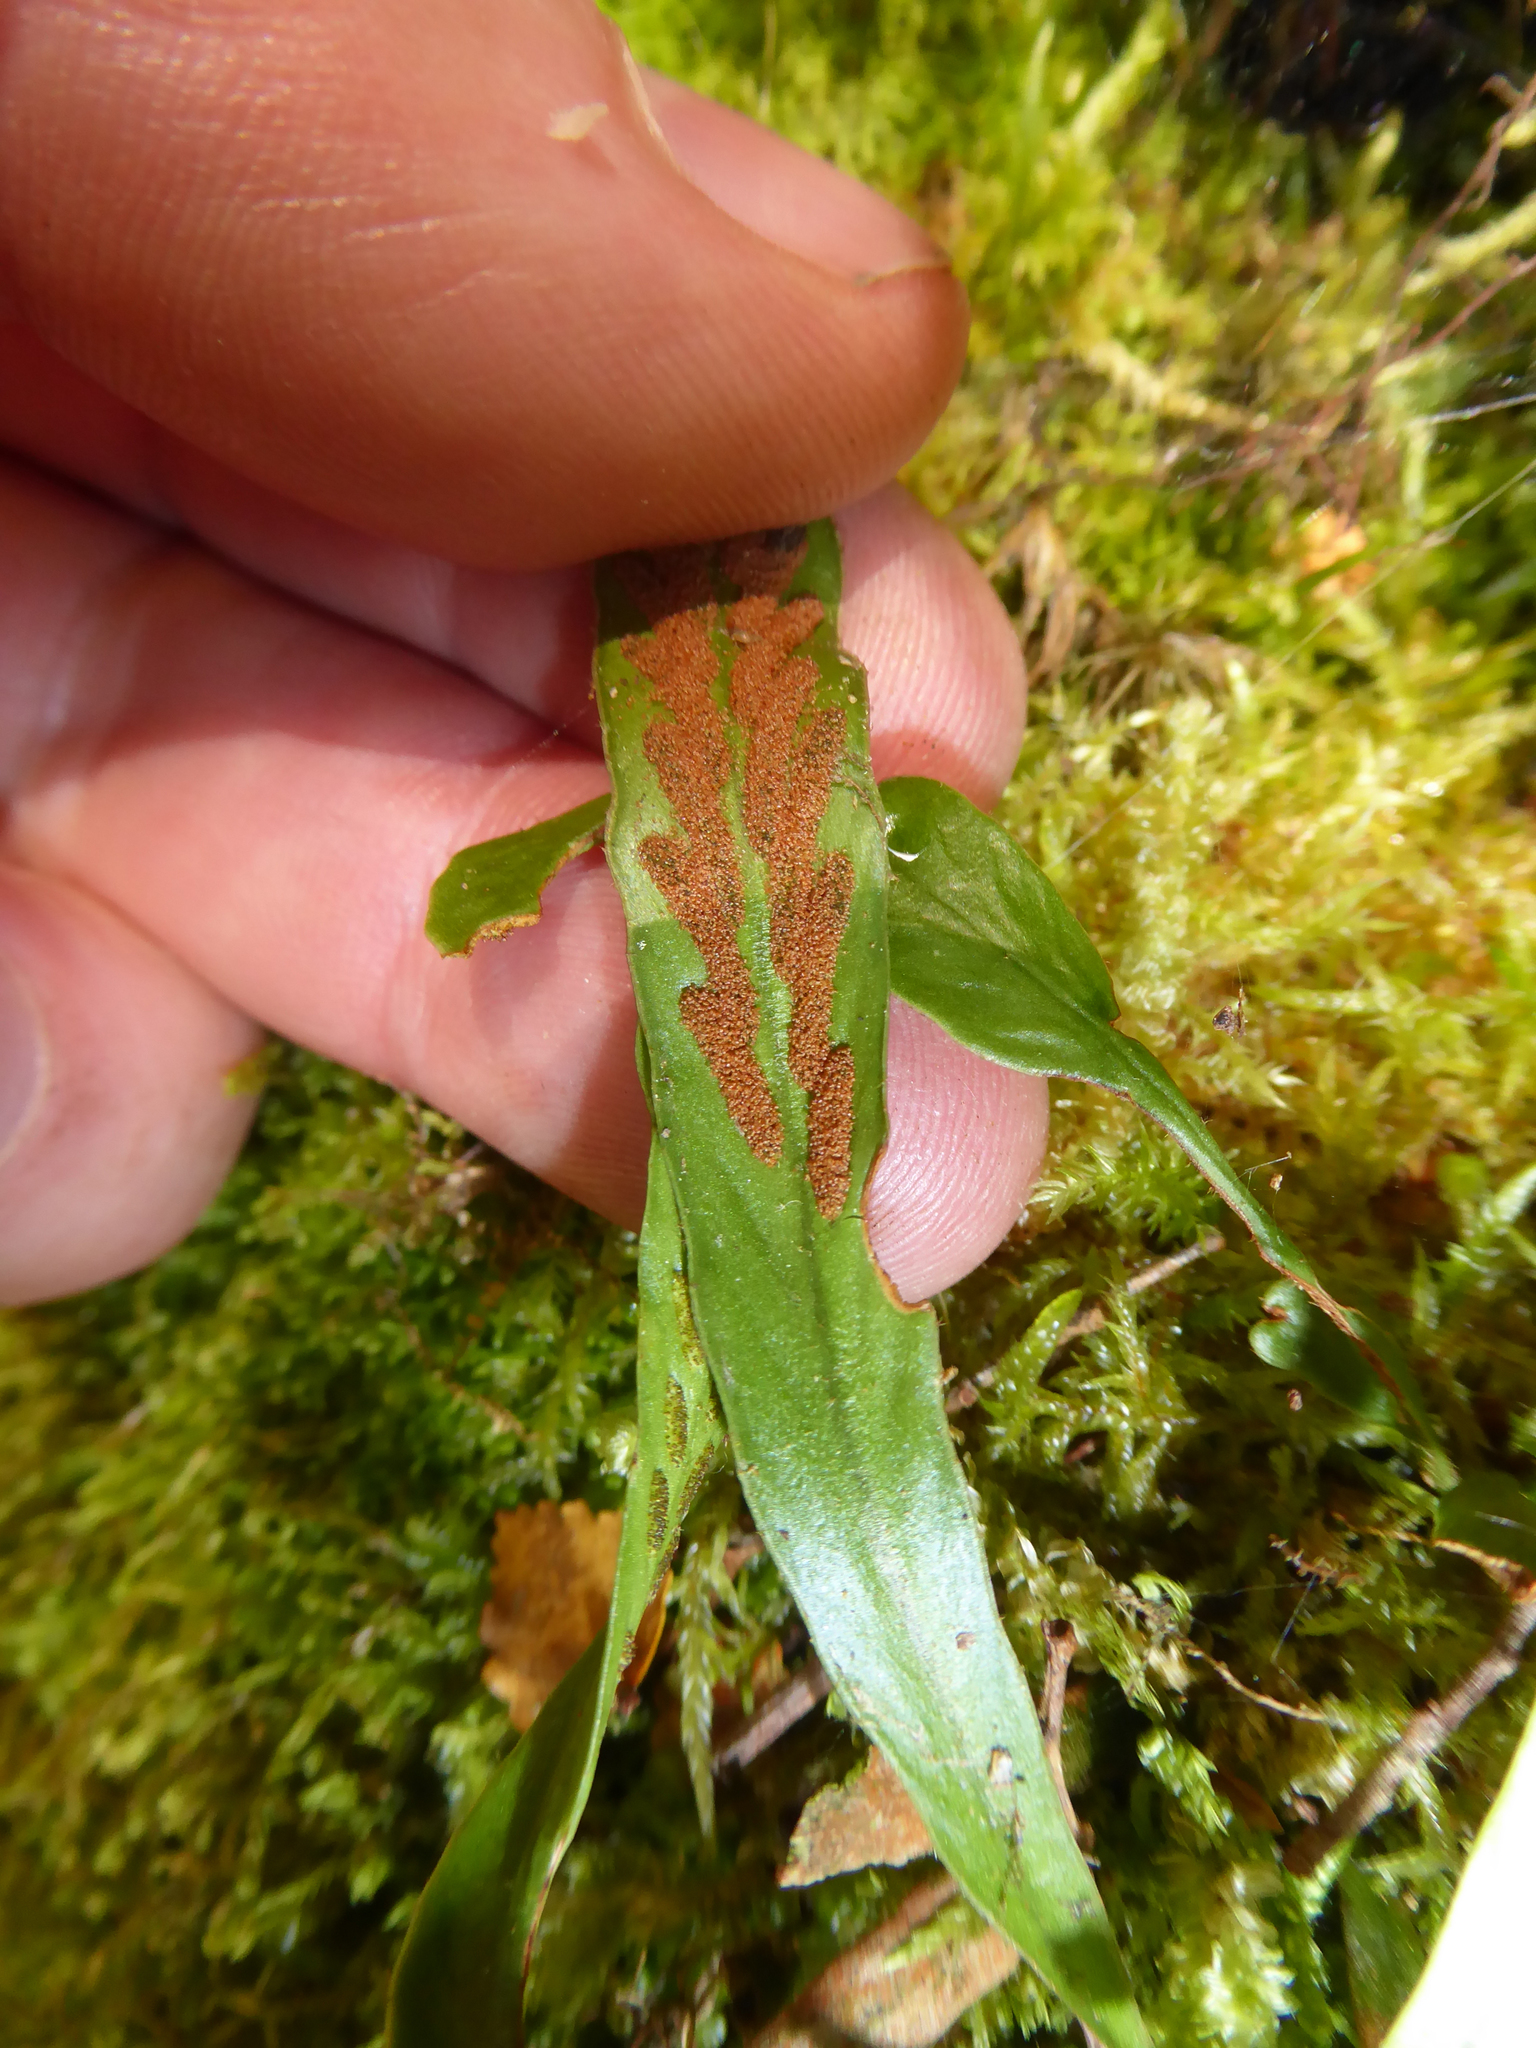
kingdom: Plantae
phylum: Tracheophyta
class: Polypodiopsida
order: Polypodiales
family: Polypodiaceae
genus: Notogrammitis
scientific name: Notogrammitis billardierei
